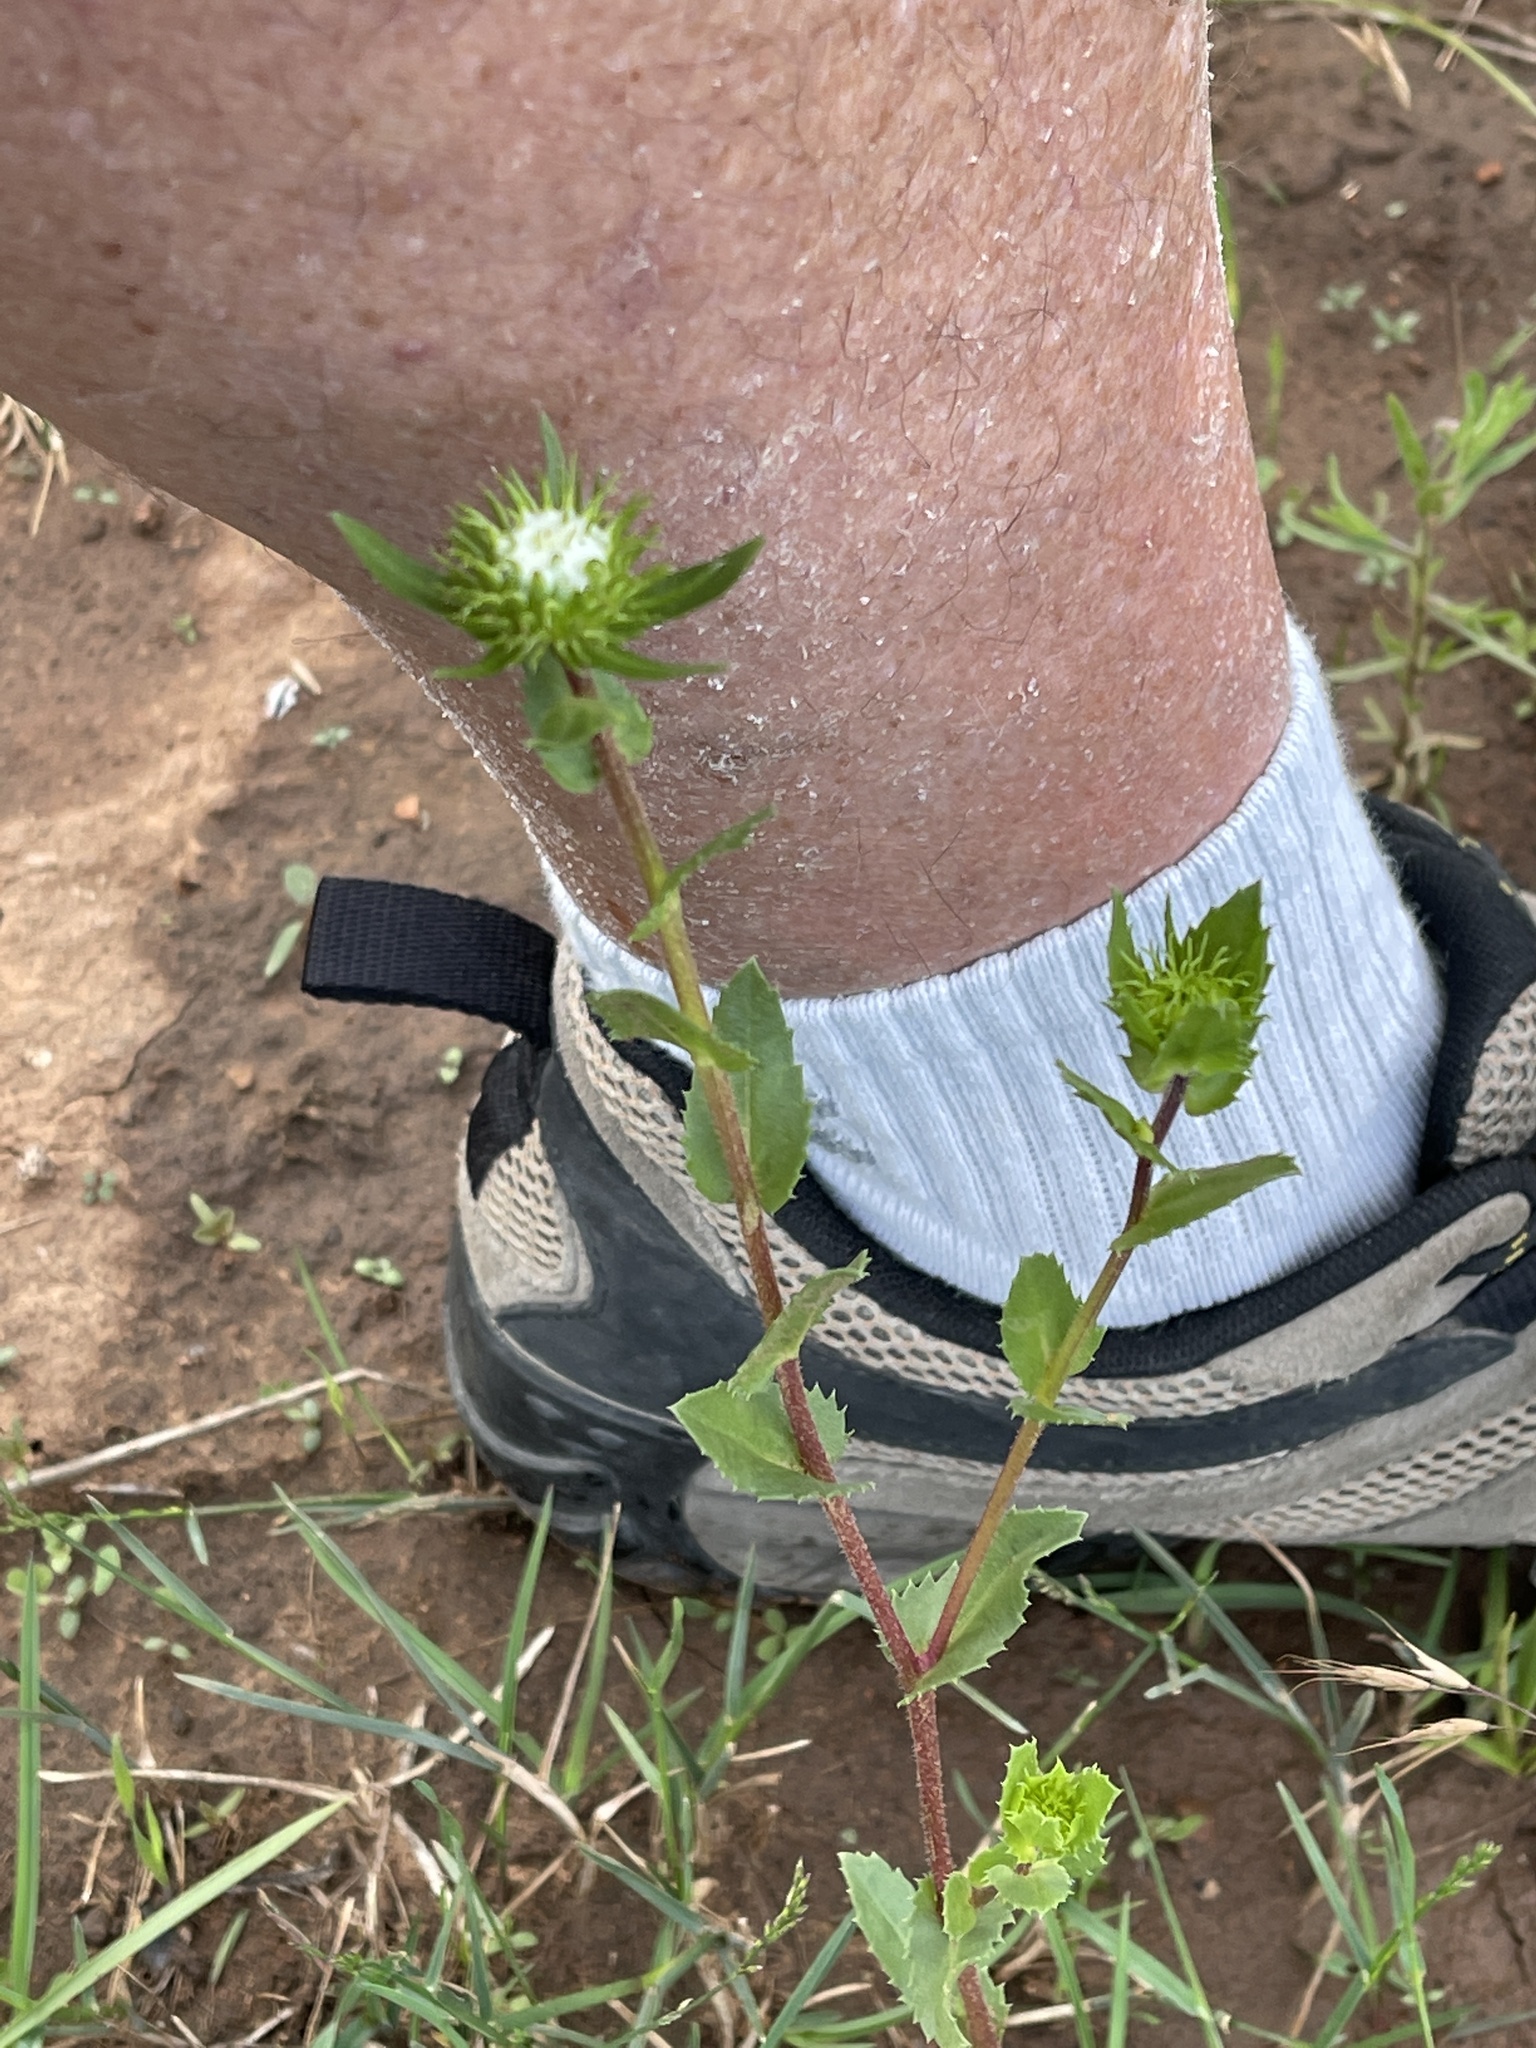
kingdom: Plantae
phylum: Tracheophyta
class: Magnoliopsida
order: Asterales
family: Asteraceae
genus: Grindelia
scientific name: Grindelia scabra
